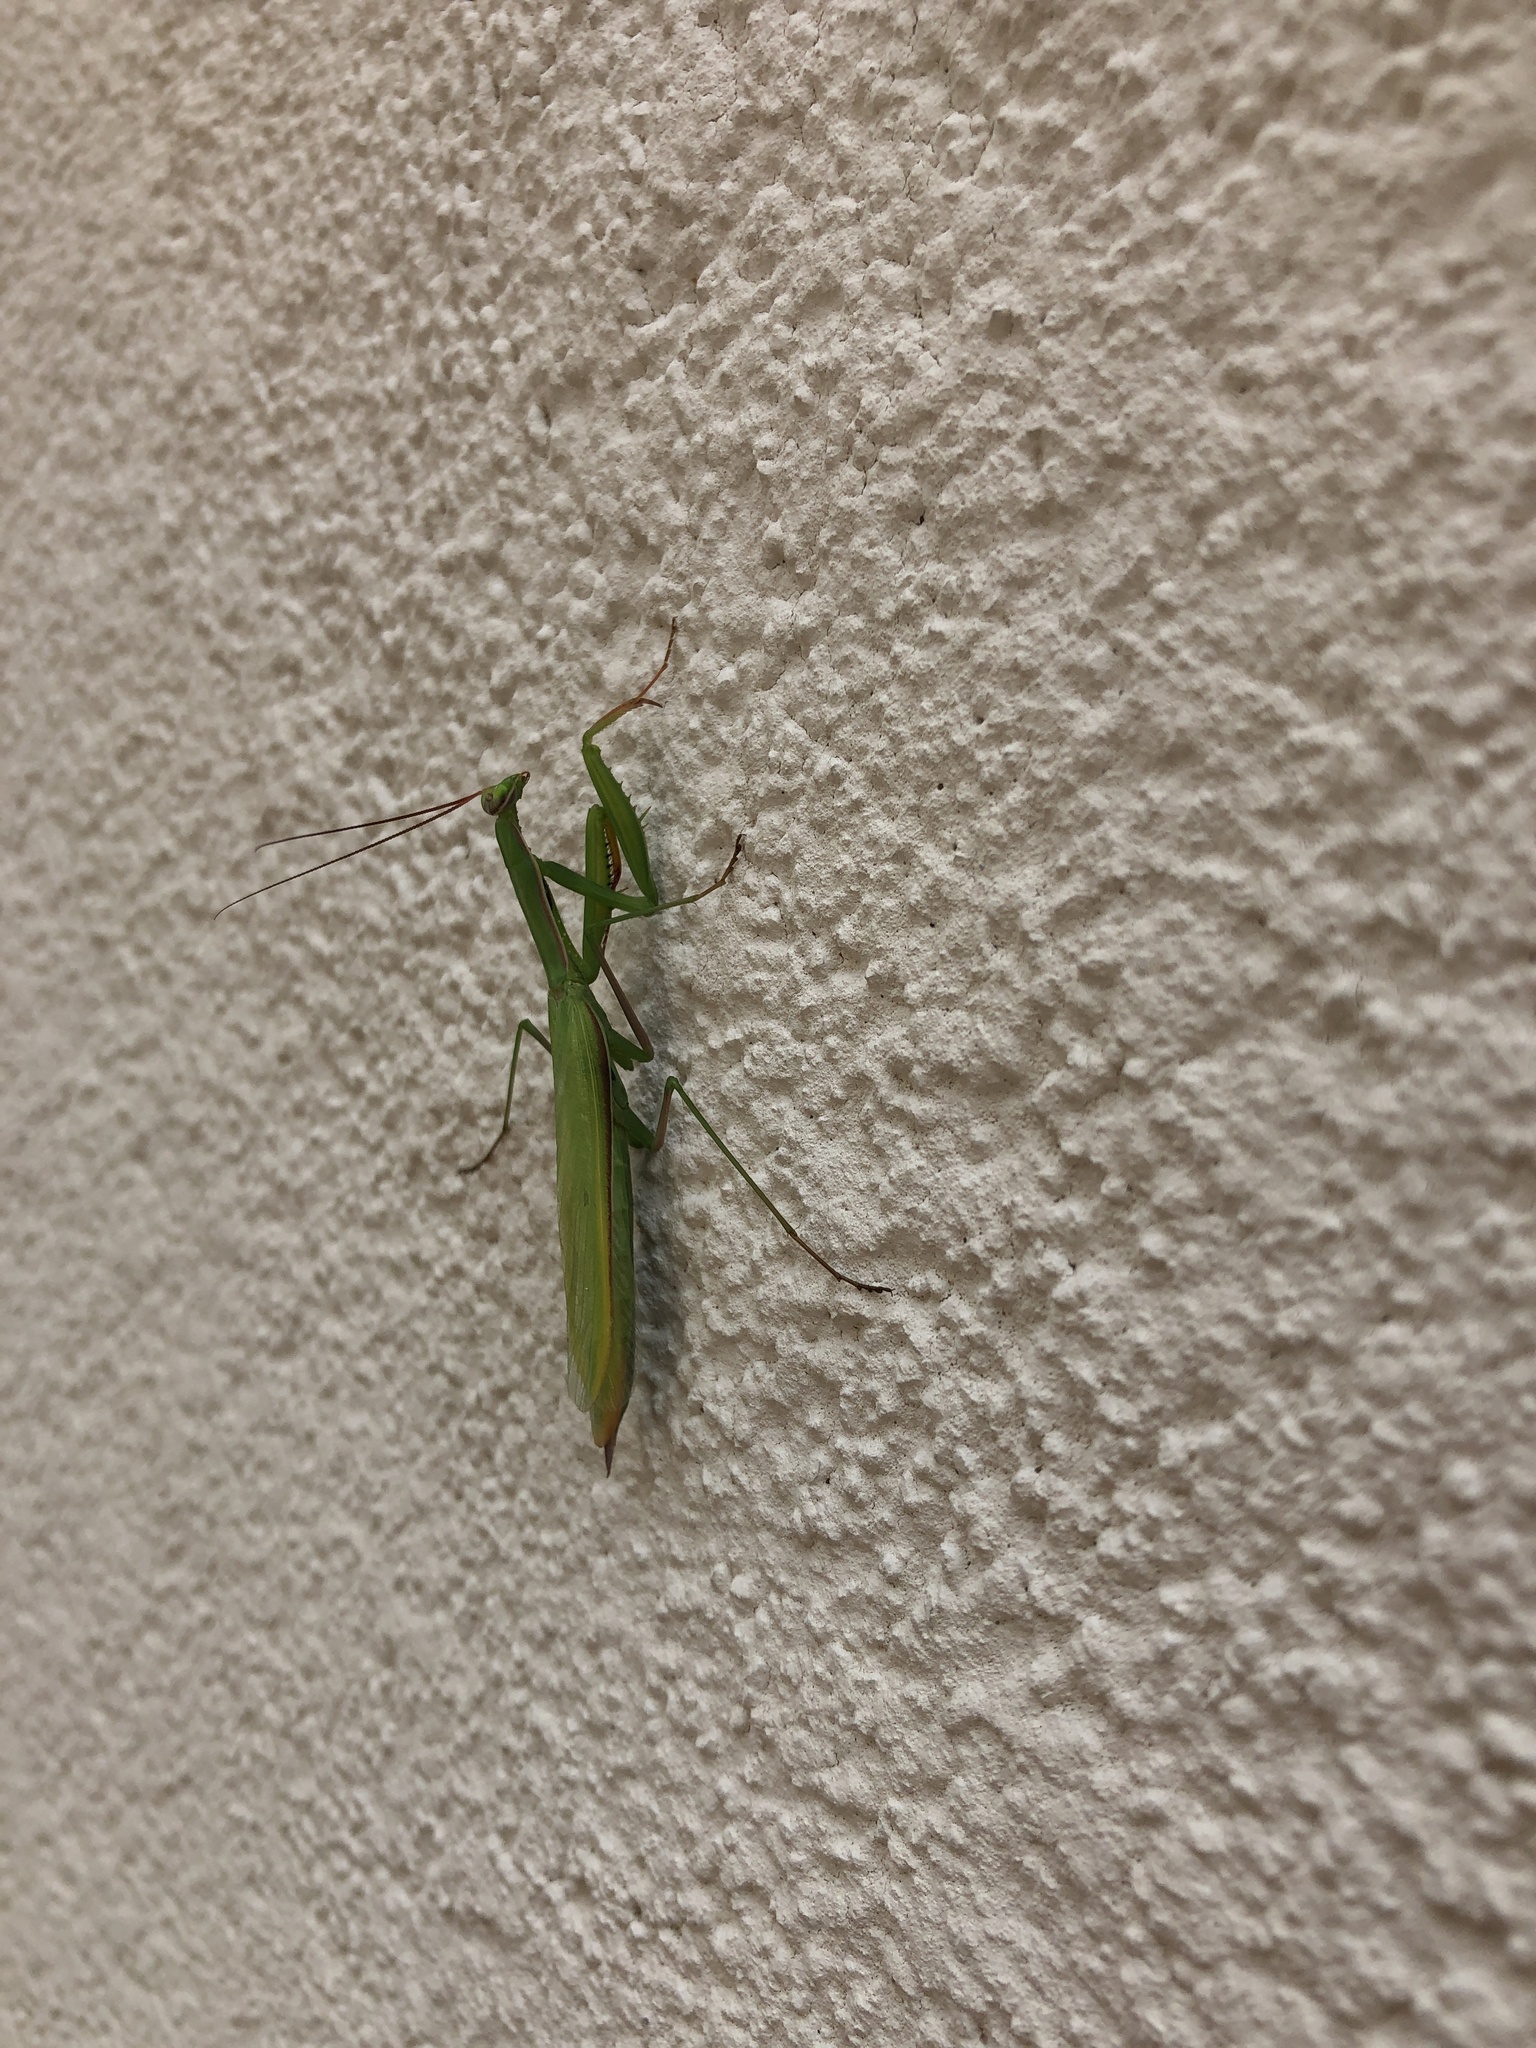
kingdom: Animalia
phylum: Arthropoda
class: Insecta
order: Mantodea
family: Mantidae
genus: Mantis
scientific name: Mantis religiosa
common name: Praying mantis
